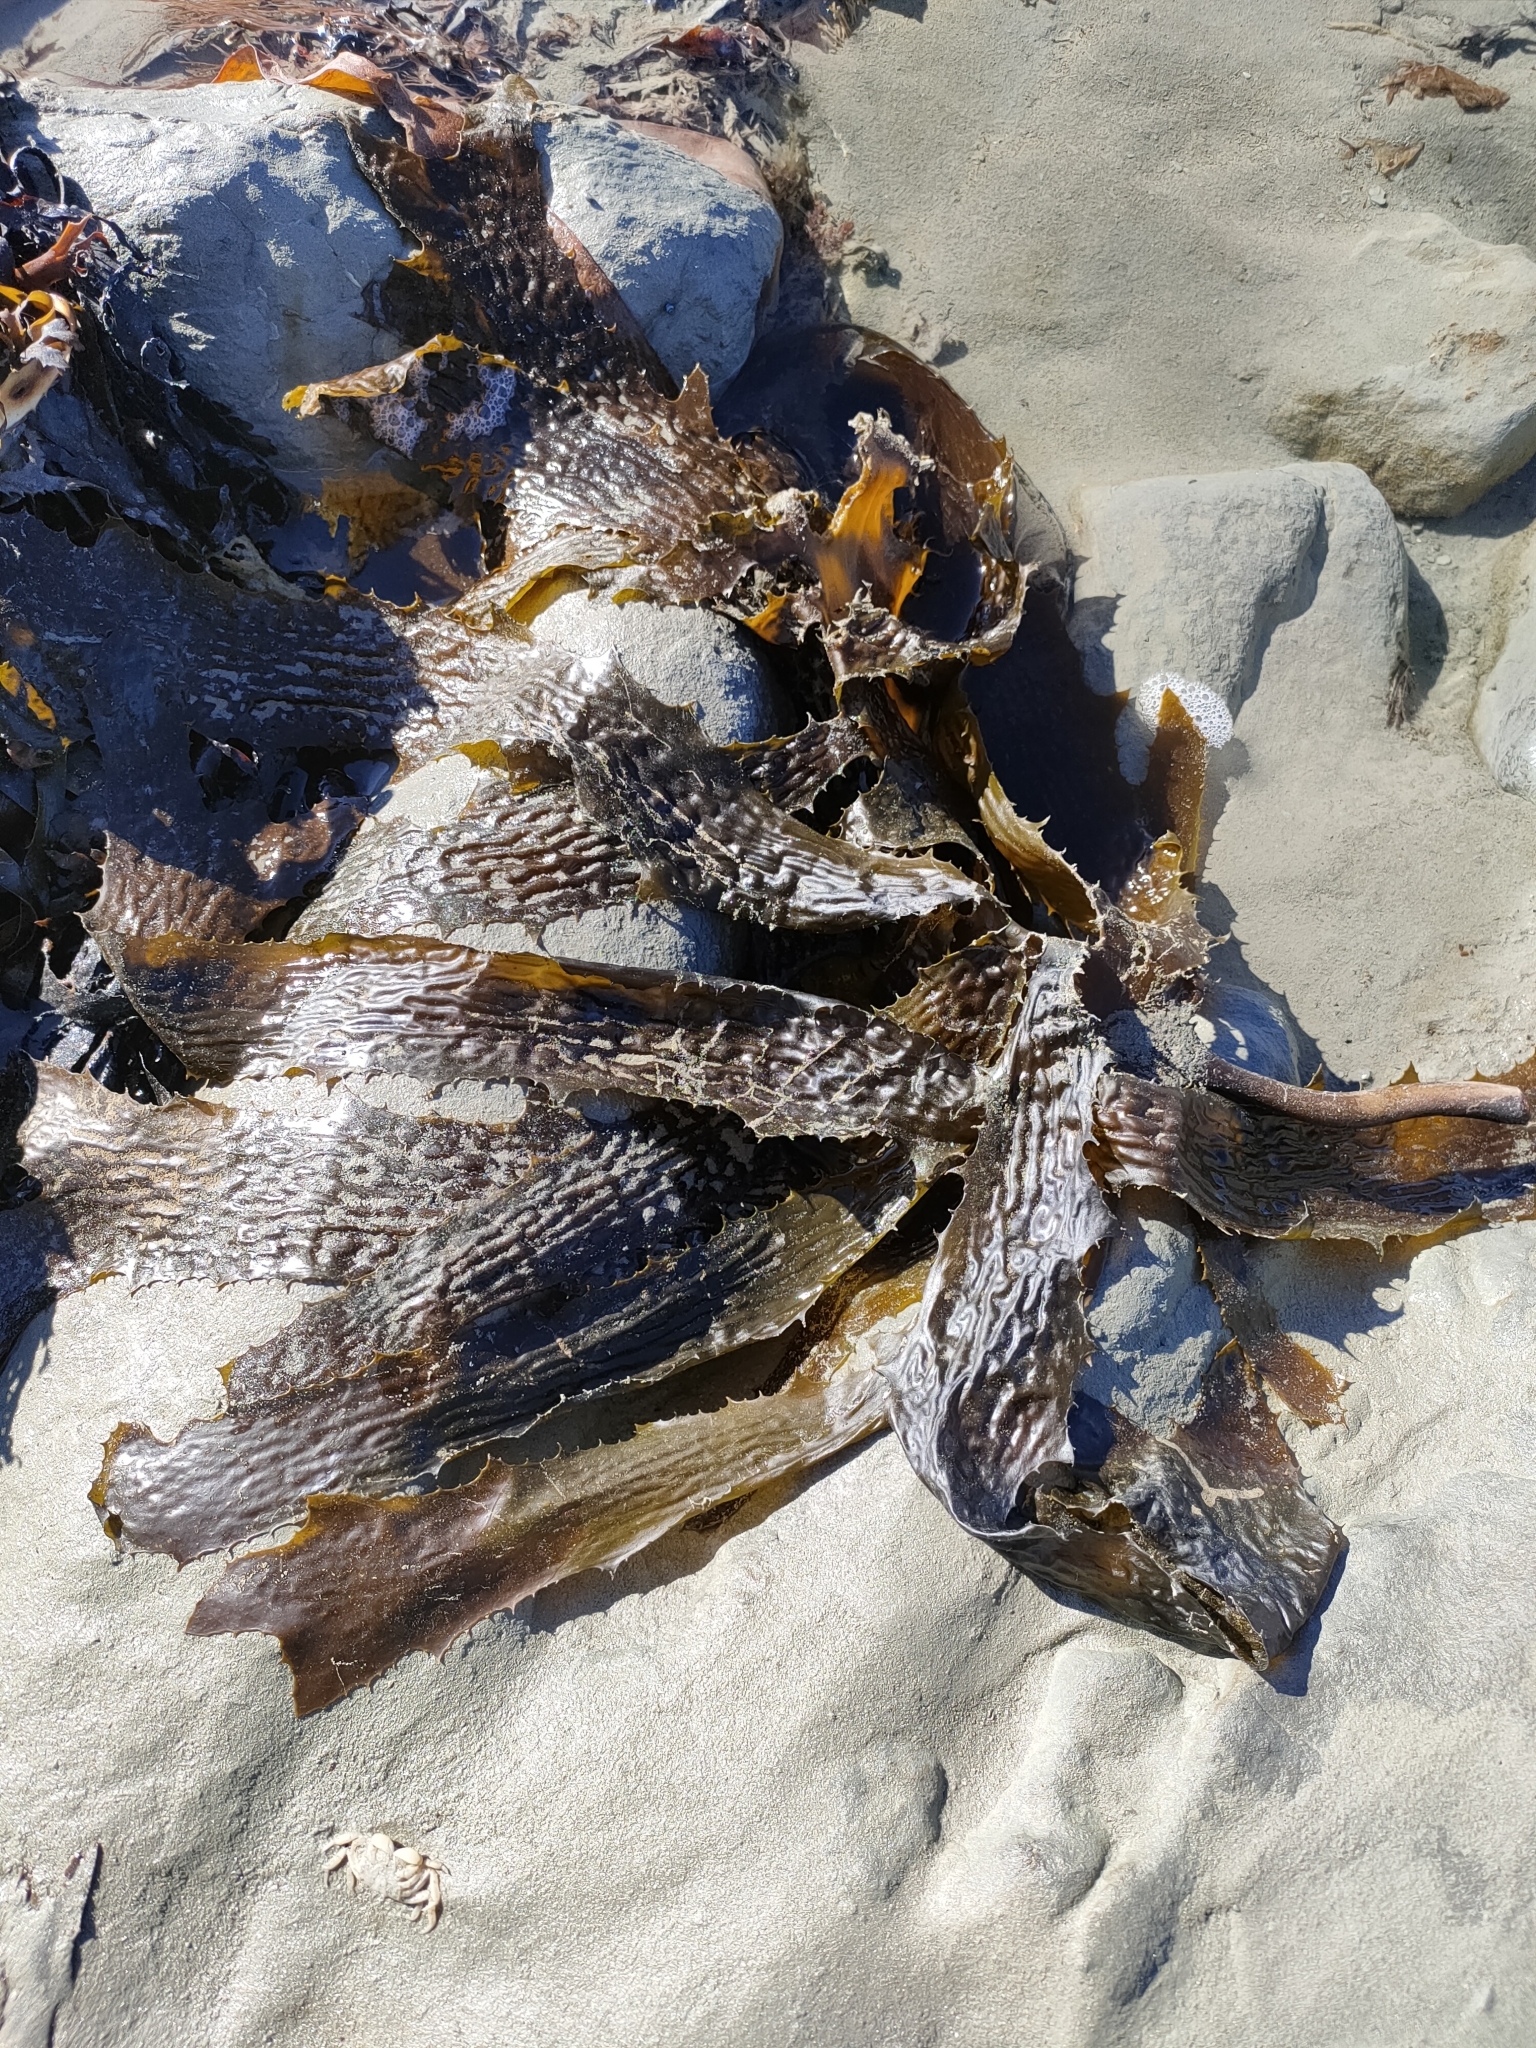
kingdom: Chromista
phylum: Ochrophyta
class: Phaeophyceae
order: Laminariales
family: Lessoniaceae
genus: Ecklonia
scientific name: Ecklonia radiata
